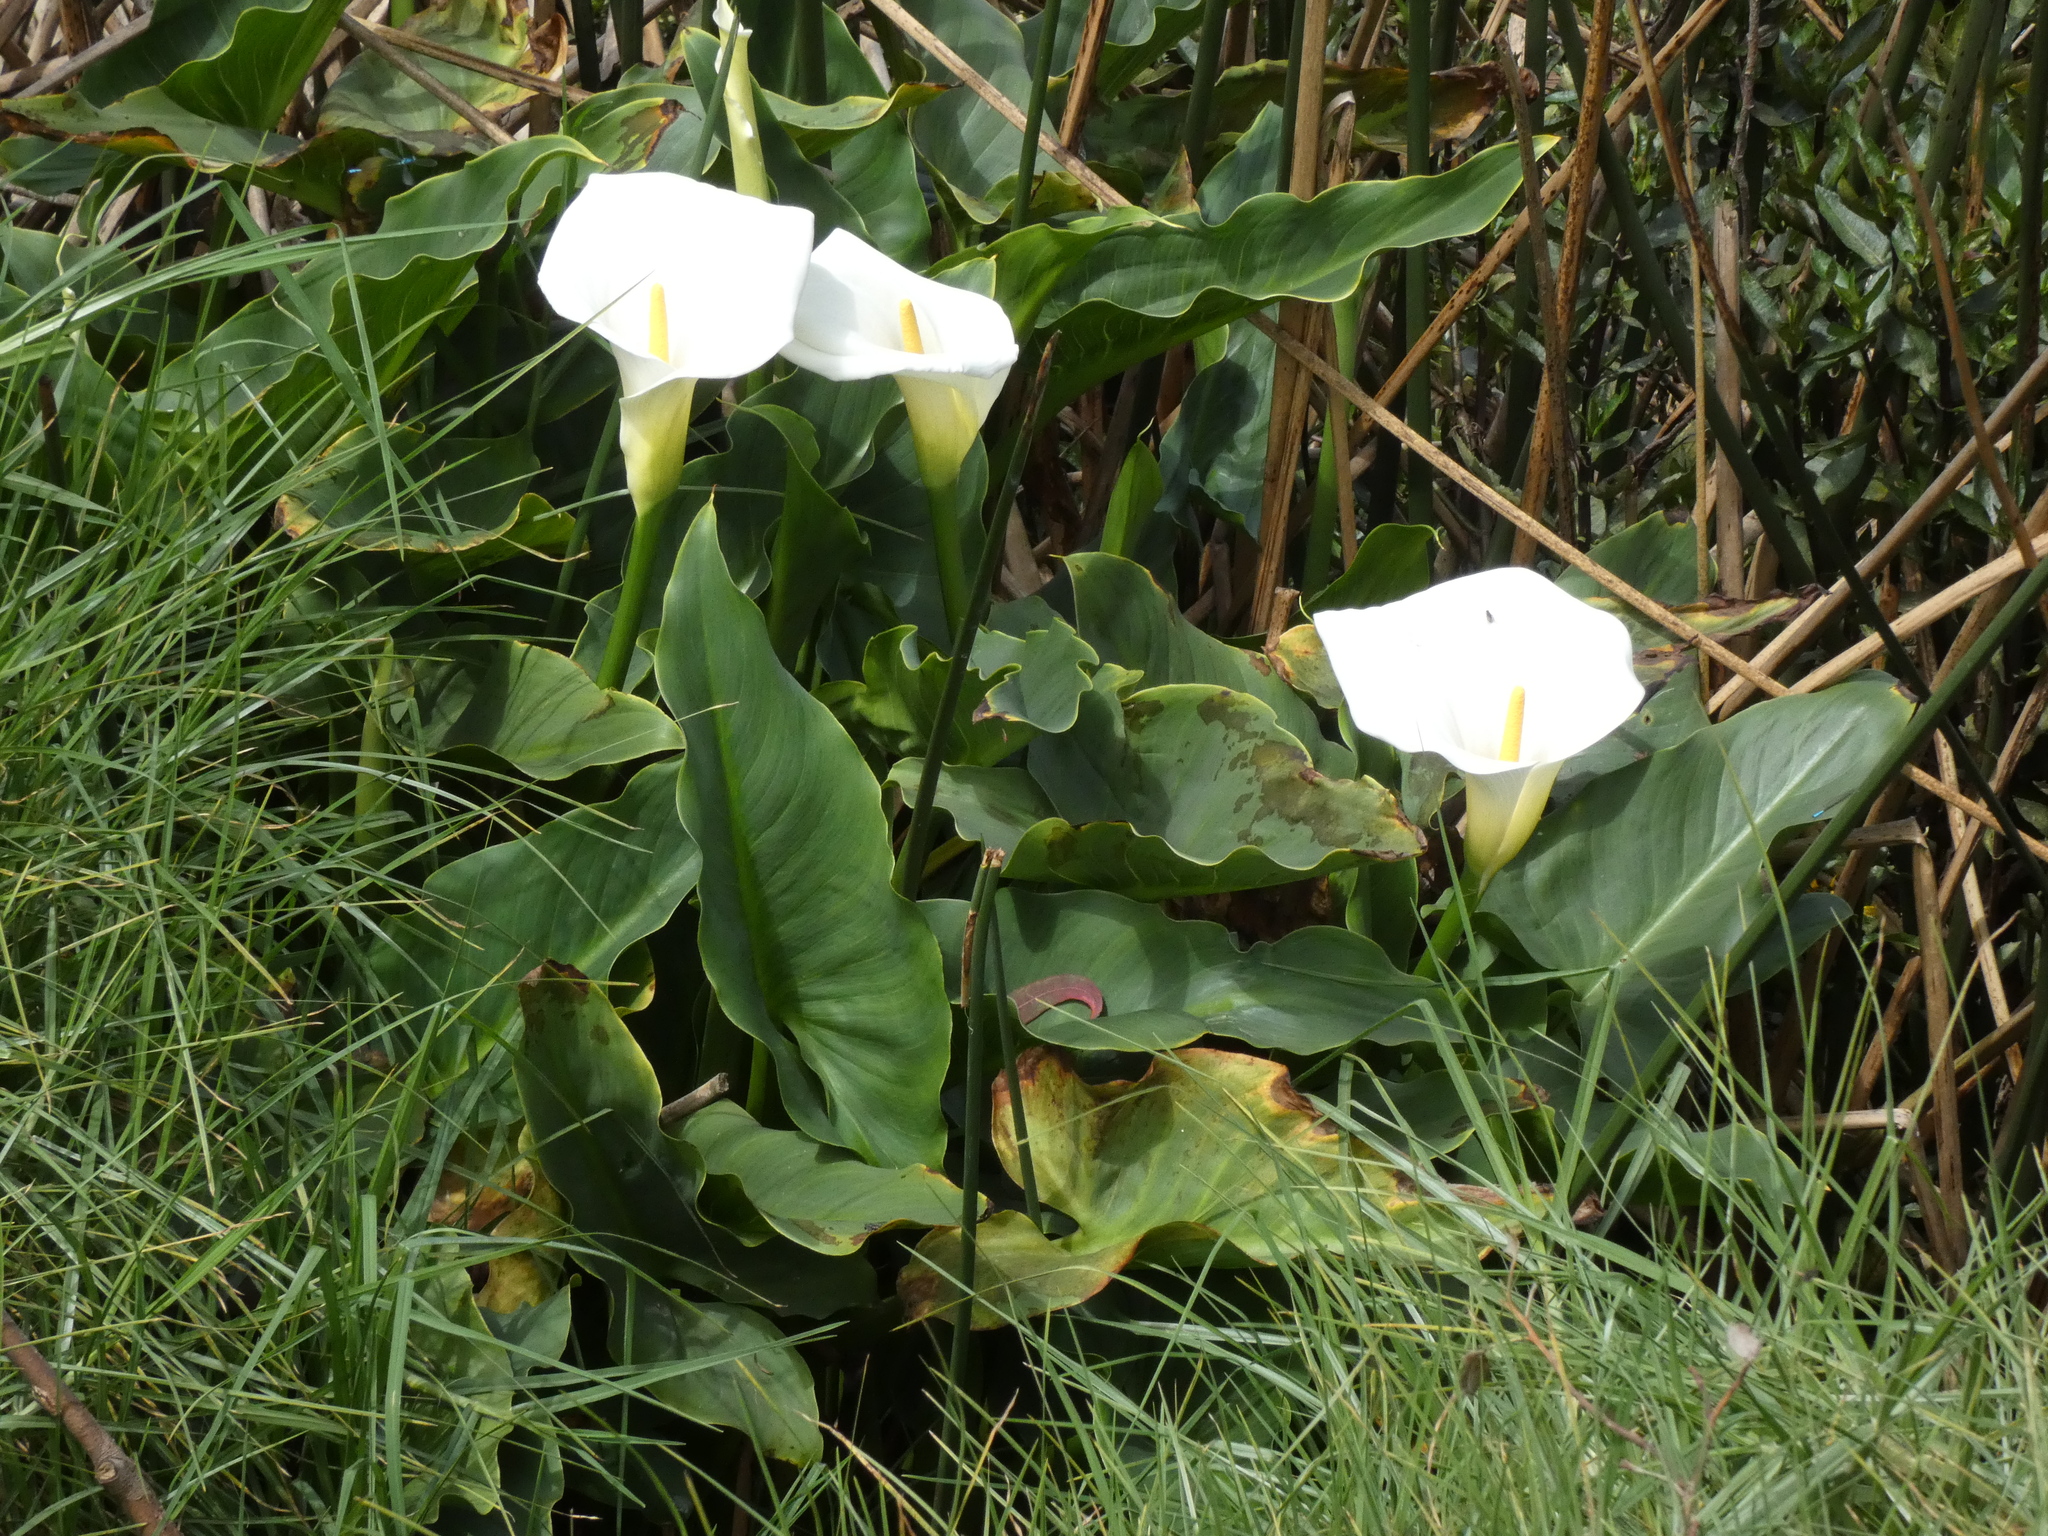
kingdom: Plantae
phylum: Tracheophyta
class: Liliopsida
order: Alismatales
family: Araceae
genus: Zantedeschia
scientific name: Zantedeschia aethiopica
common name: Altar-lily
